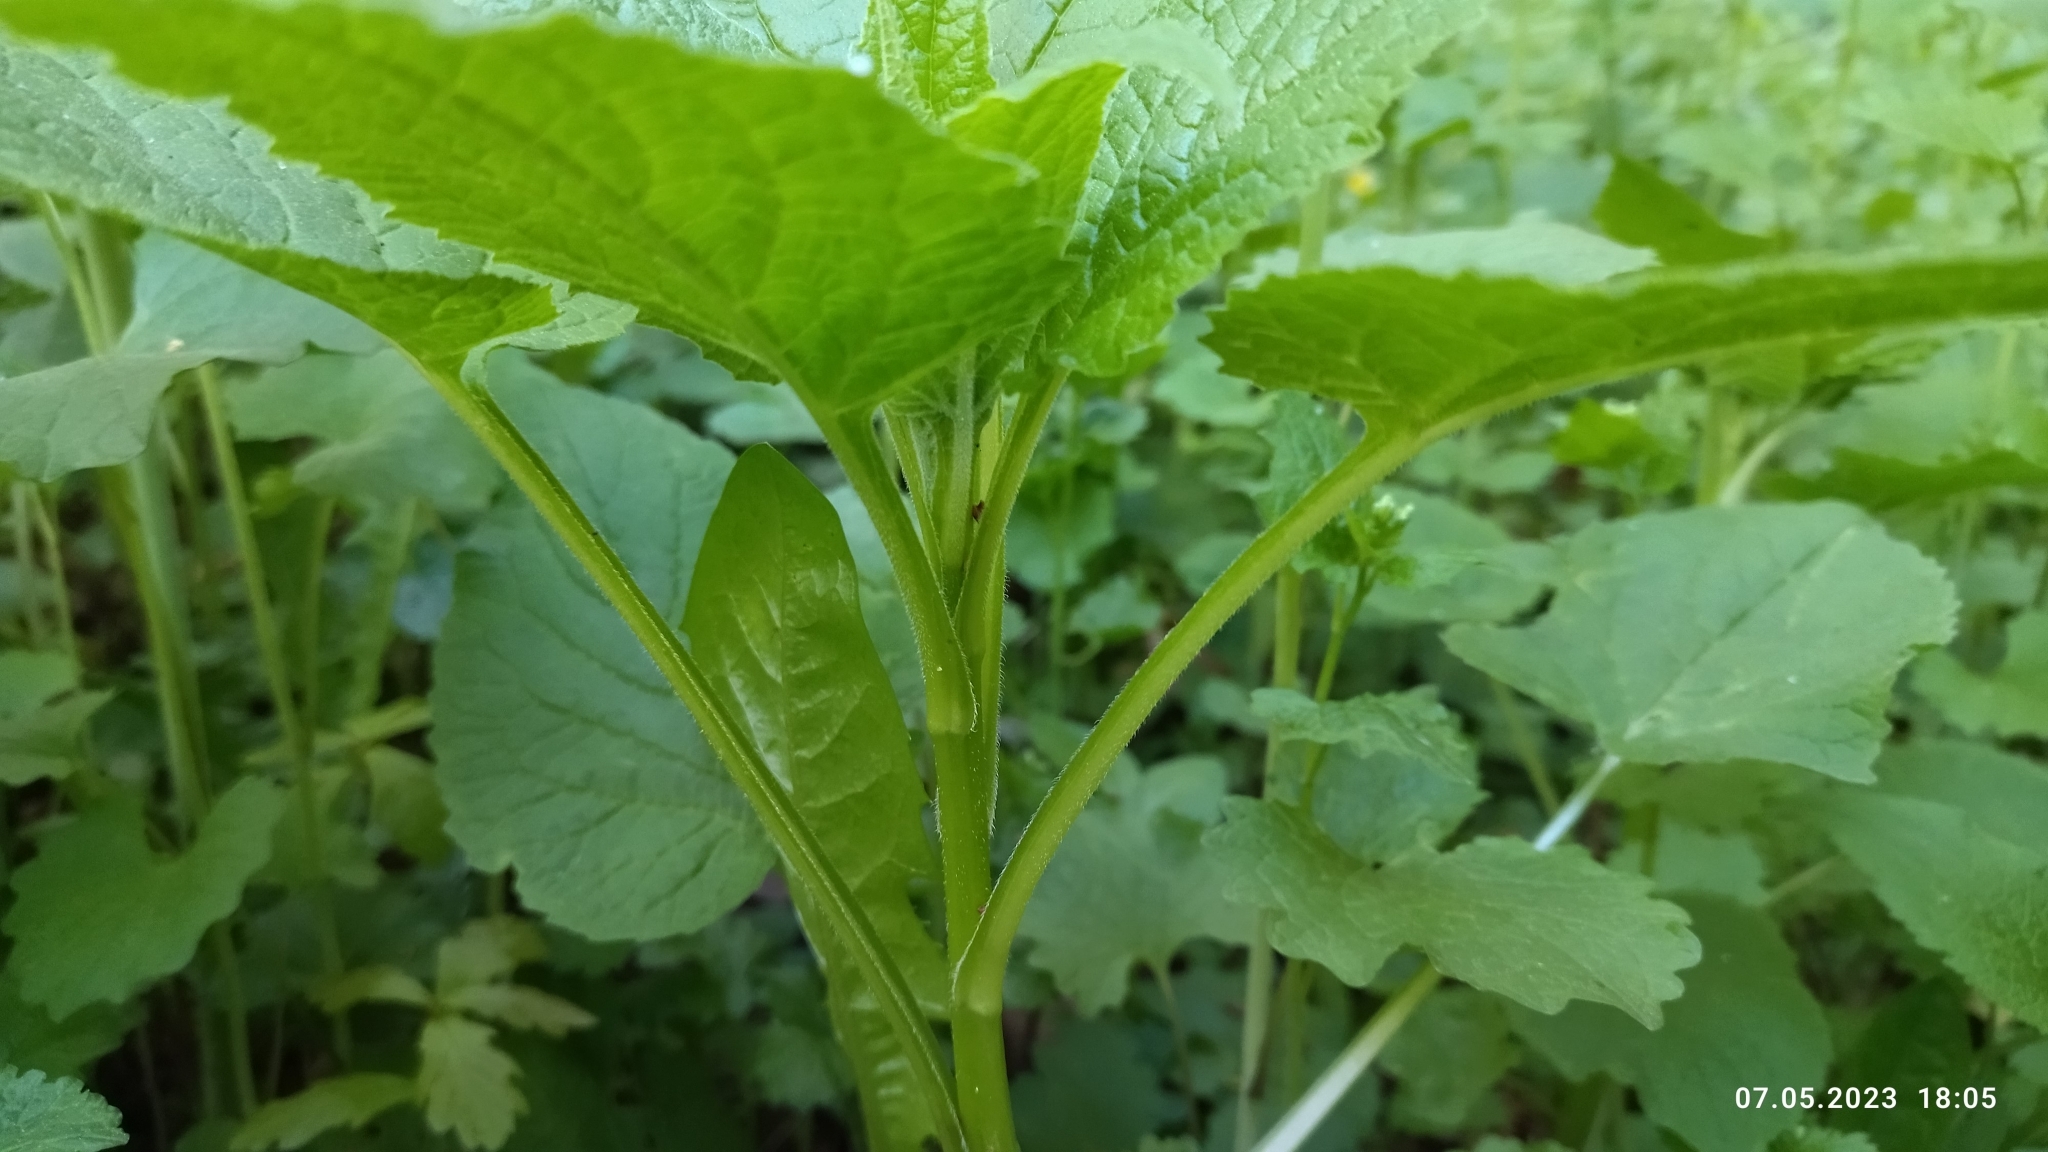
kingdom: Plantae
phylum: Tracheophyta
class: Magnoliopsida
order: Asterales
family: Campanulaceae
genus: Campanula
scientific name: Campanula latifolia
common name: Giant bellflower
